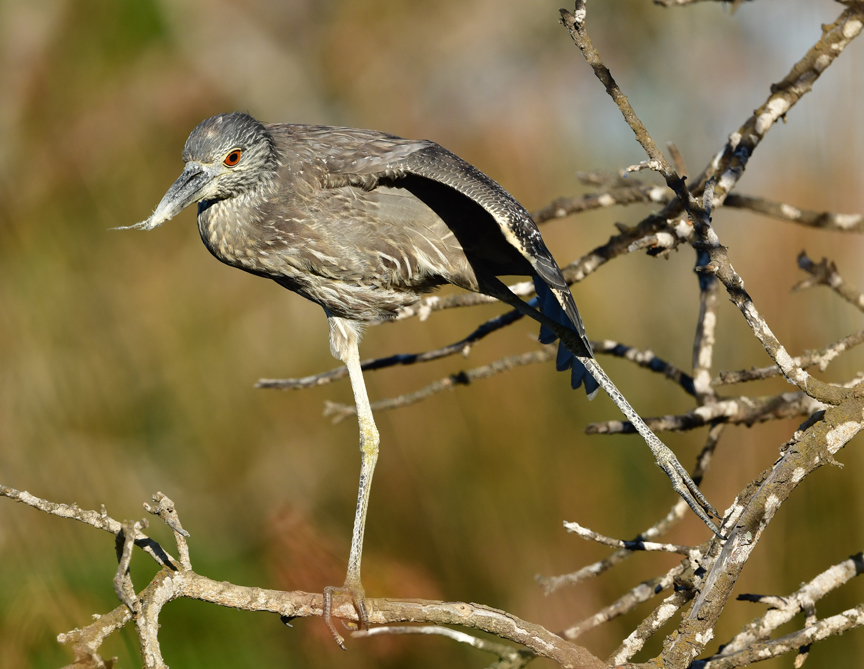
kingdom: Animalia
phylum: Chordata
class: Aves
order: Pelecaniformes
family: Ardeidae
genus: Nyctanassa
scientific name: Nyctanassa violacea
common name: Yellow-crowned night heron
